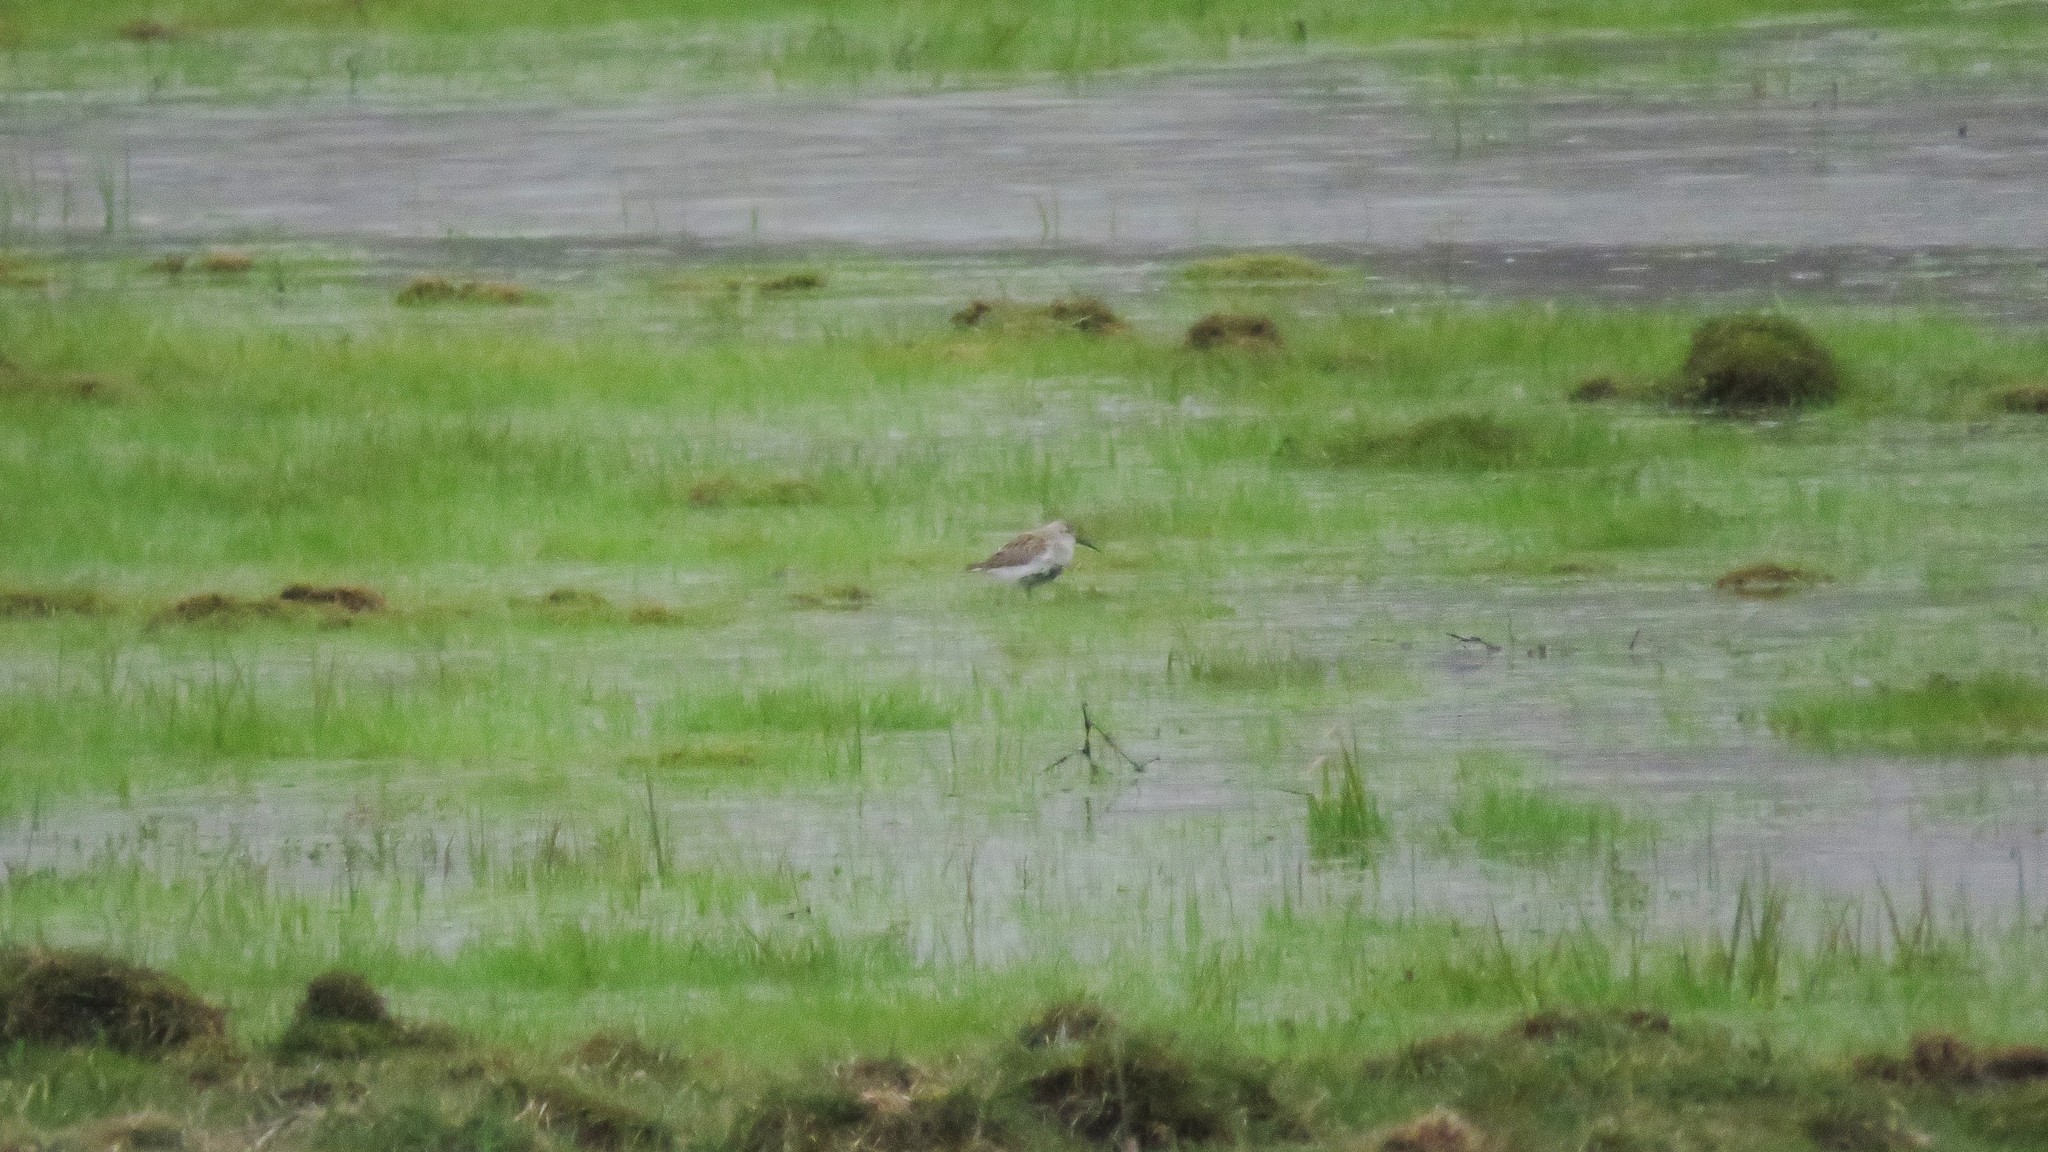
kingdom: Animalia
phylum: Chordata
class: Aves
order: Charadriiformes
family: Scolopacidae
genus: Calidris
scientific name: Calidris alpina
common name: Dunlin
